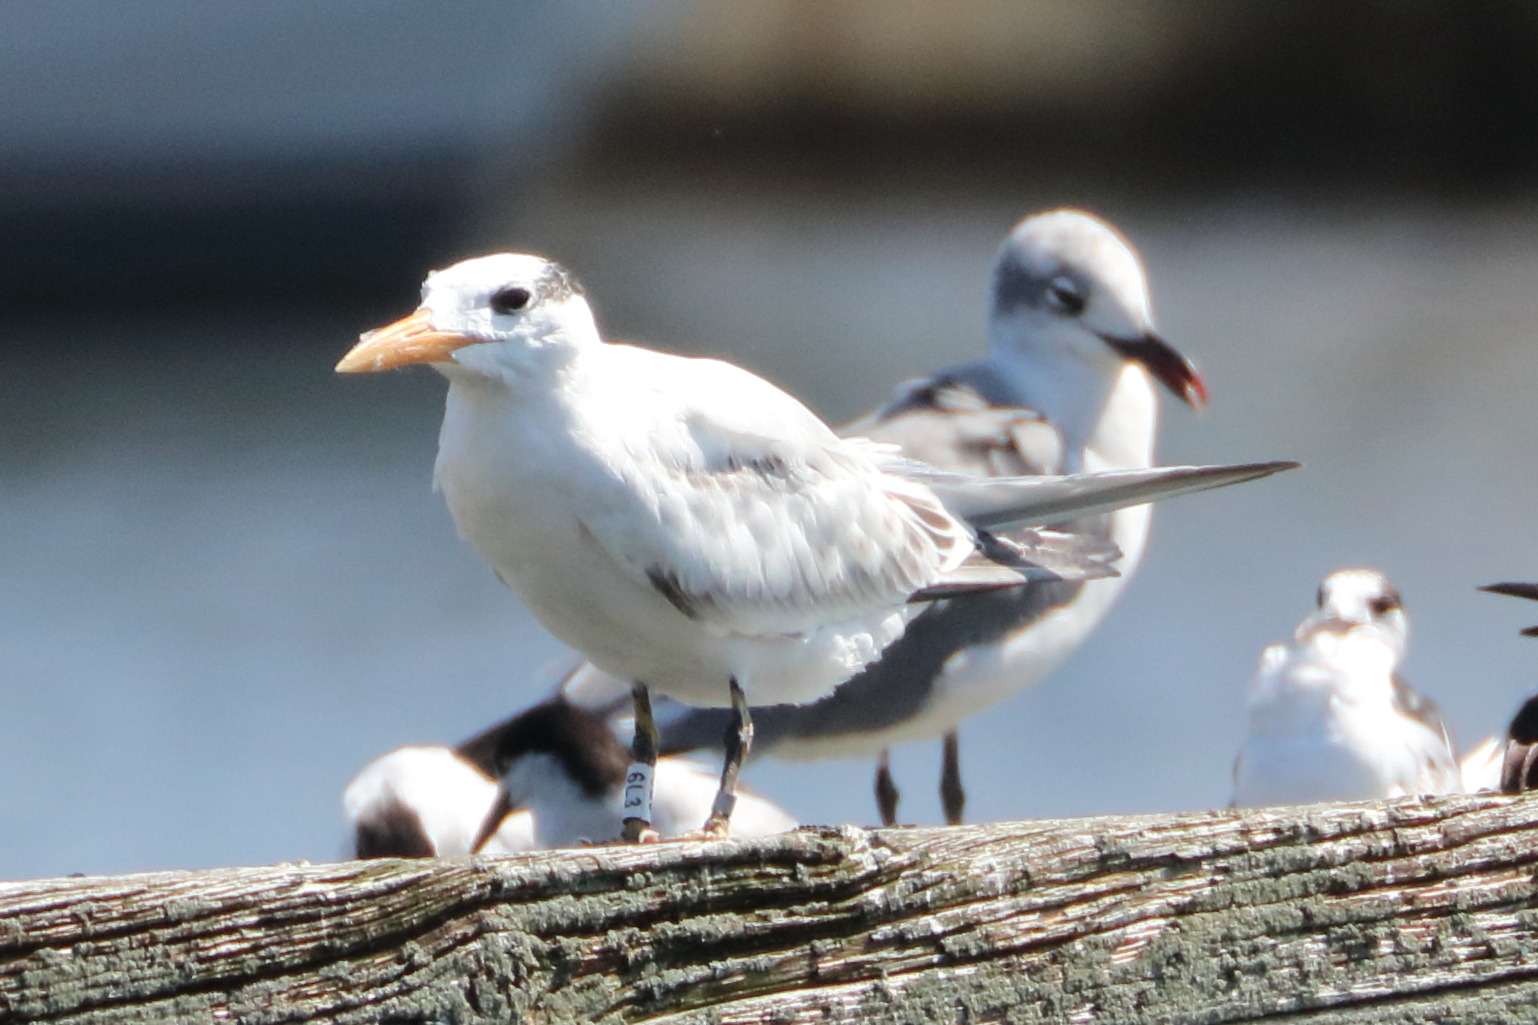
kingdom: Animalia
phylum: Chordata
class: Aves
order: Charadriiformes
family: Laridae
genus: Thalasseus
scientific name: Thalasseus maximus
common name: Royal tern
